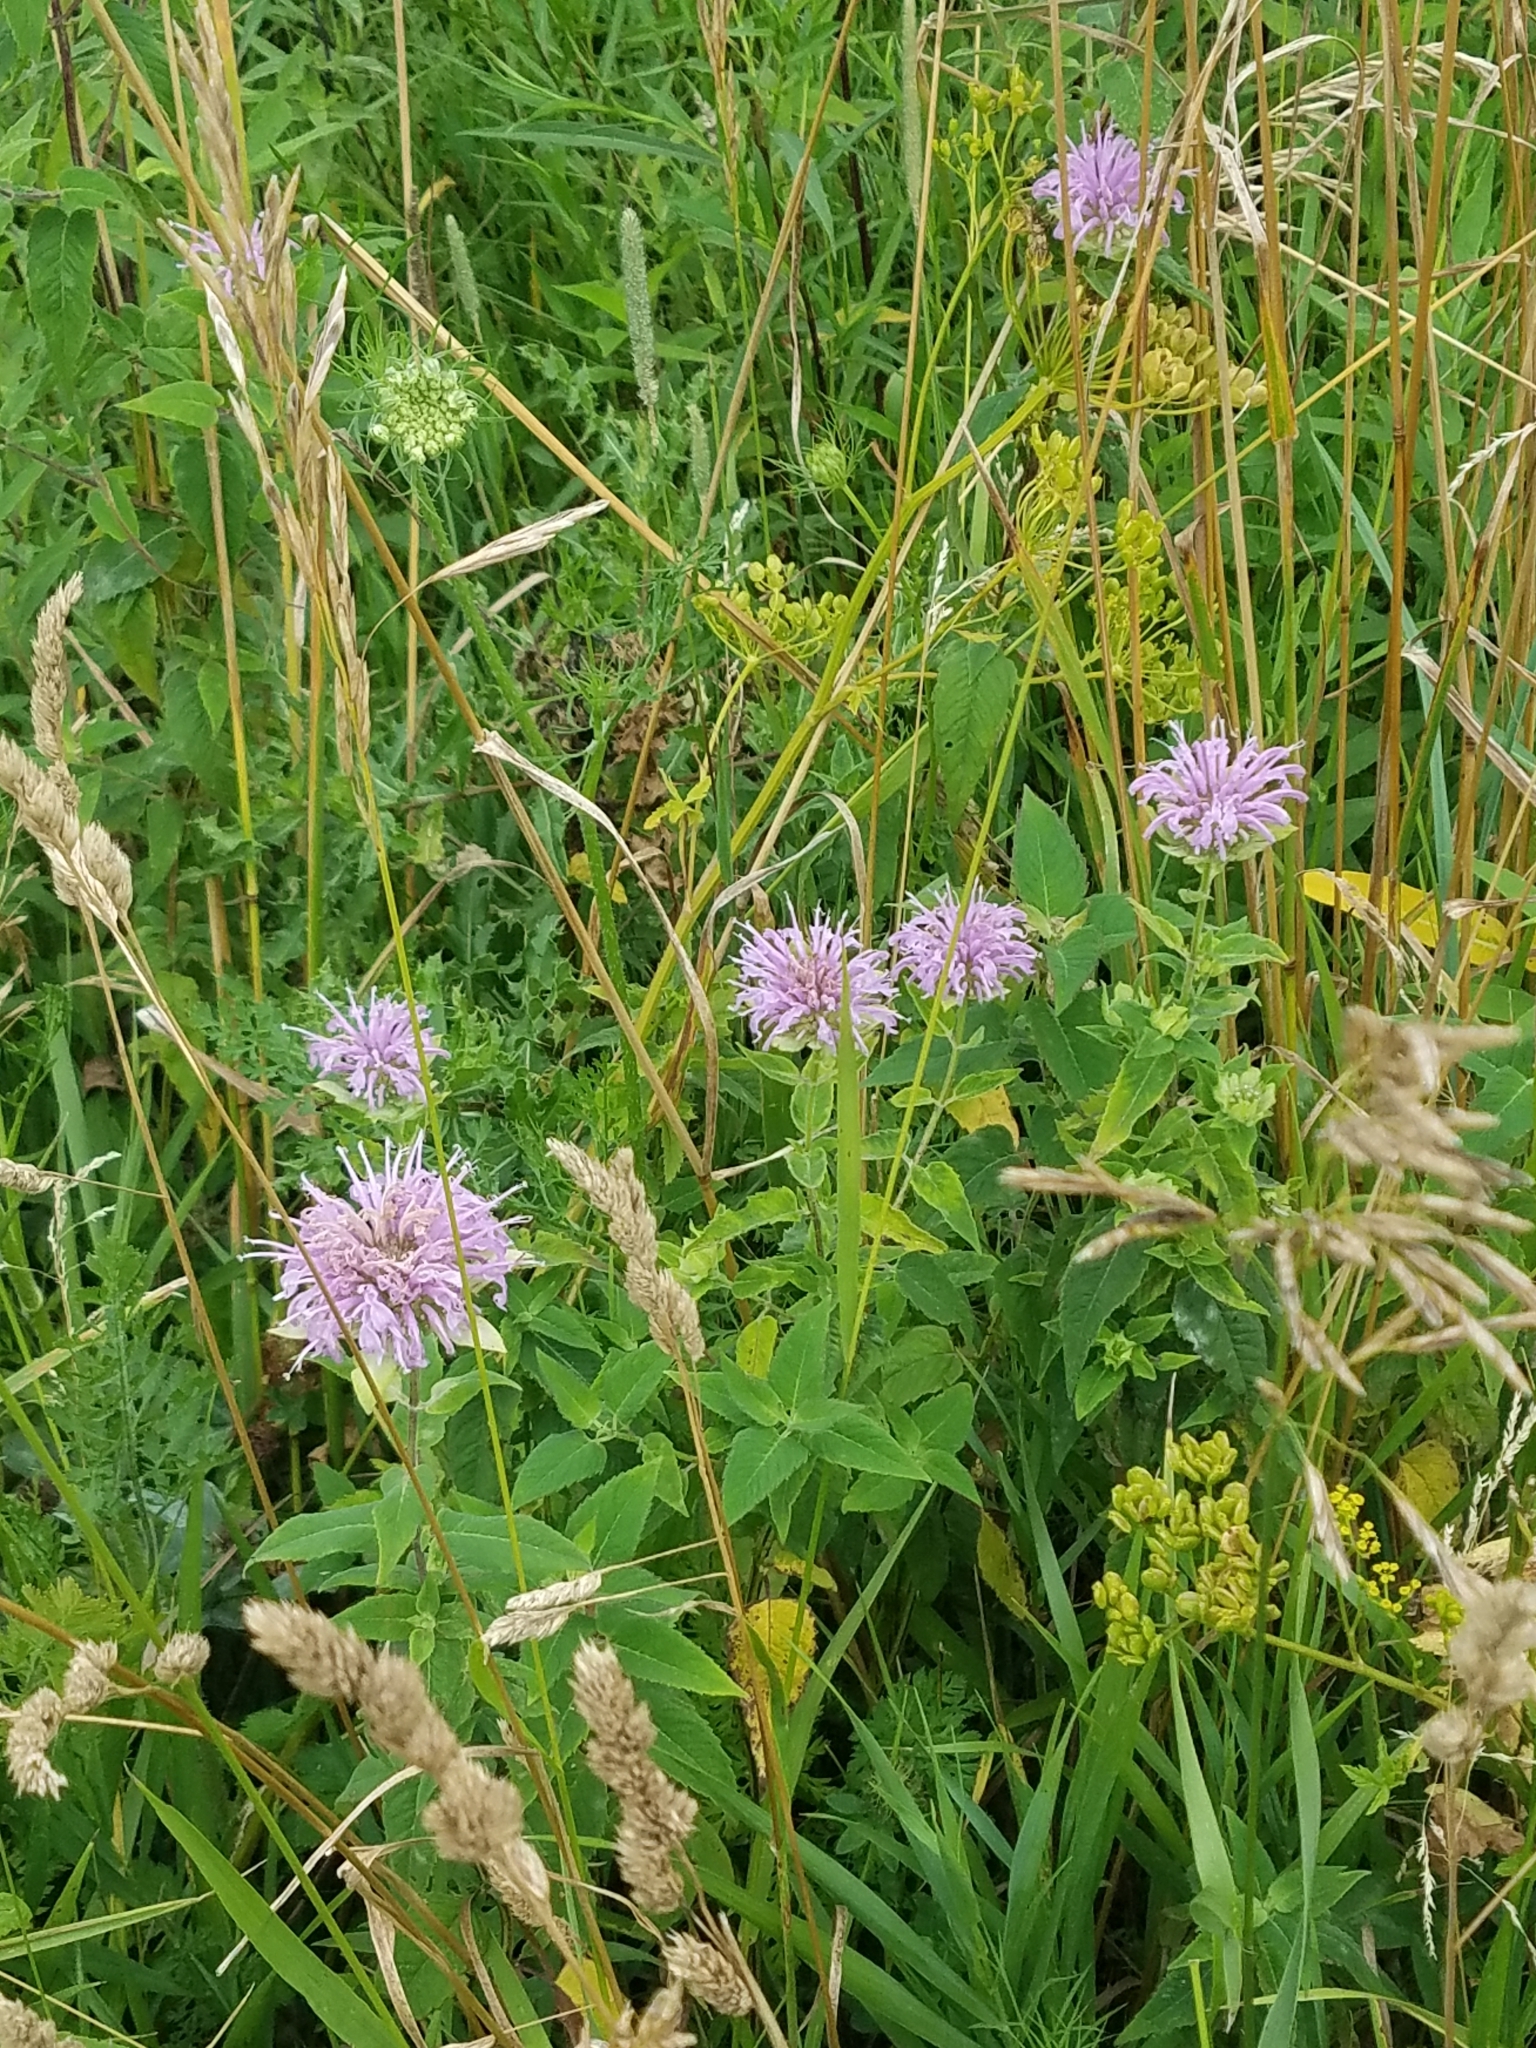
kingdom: Plantae
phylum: Tracheophyta
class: Magnoliopsida
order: Lamiales
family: Lamiaceae
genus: Monarda
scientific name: Monarda fistulosa
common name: Purple beebalm
